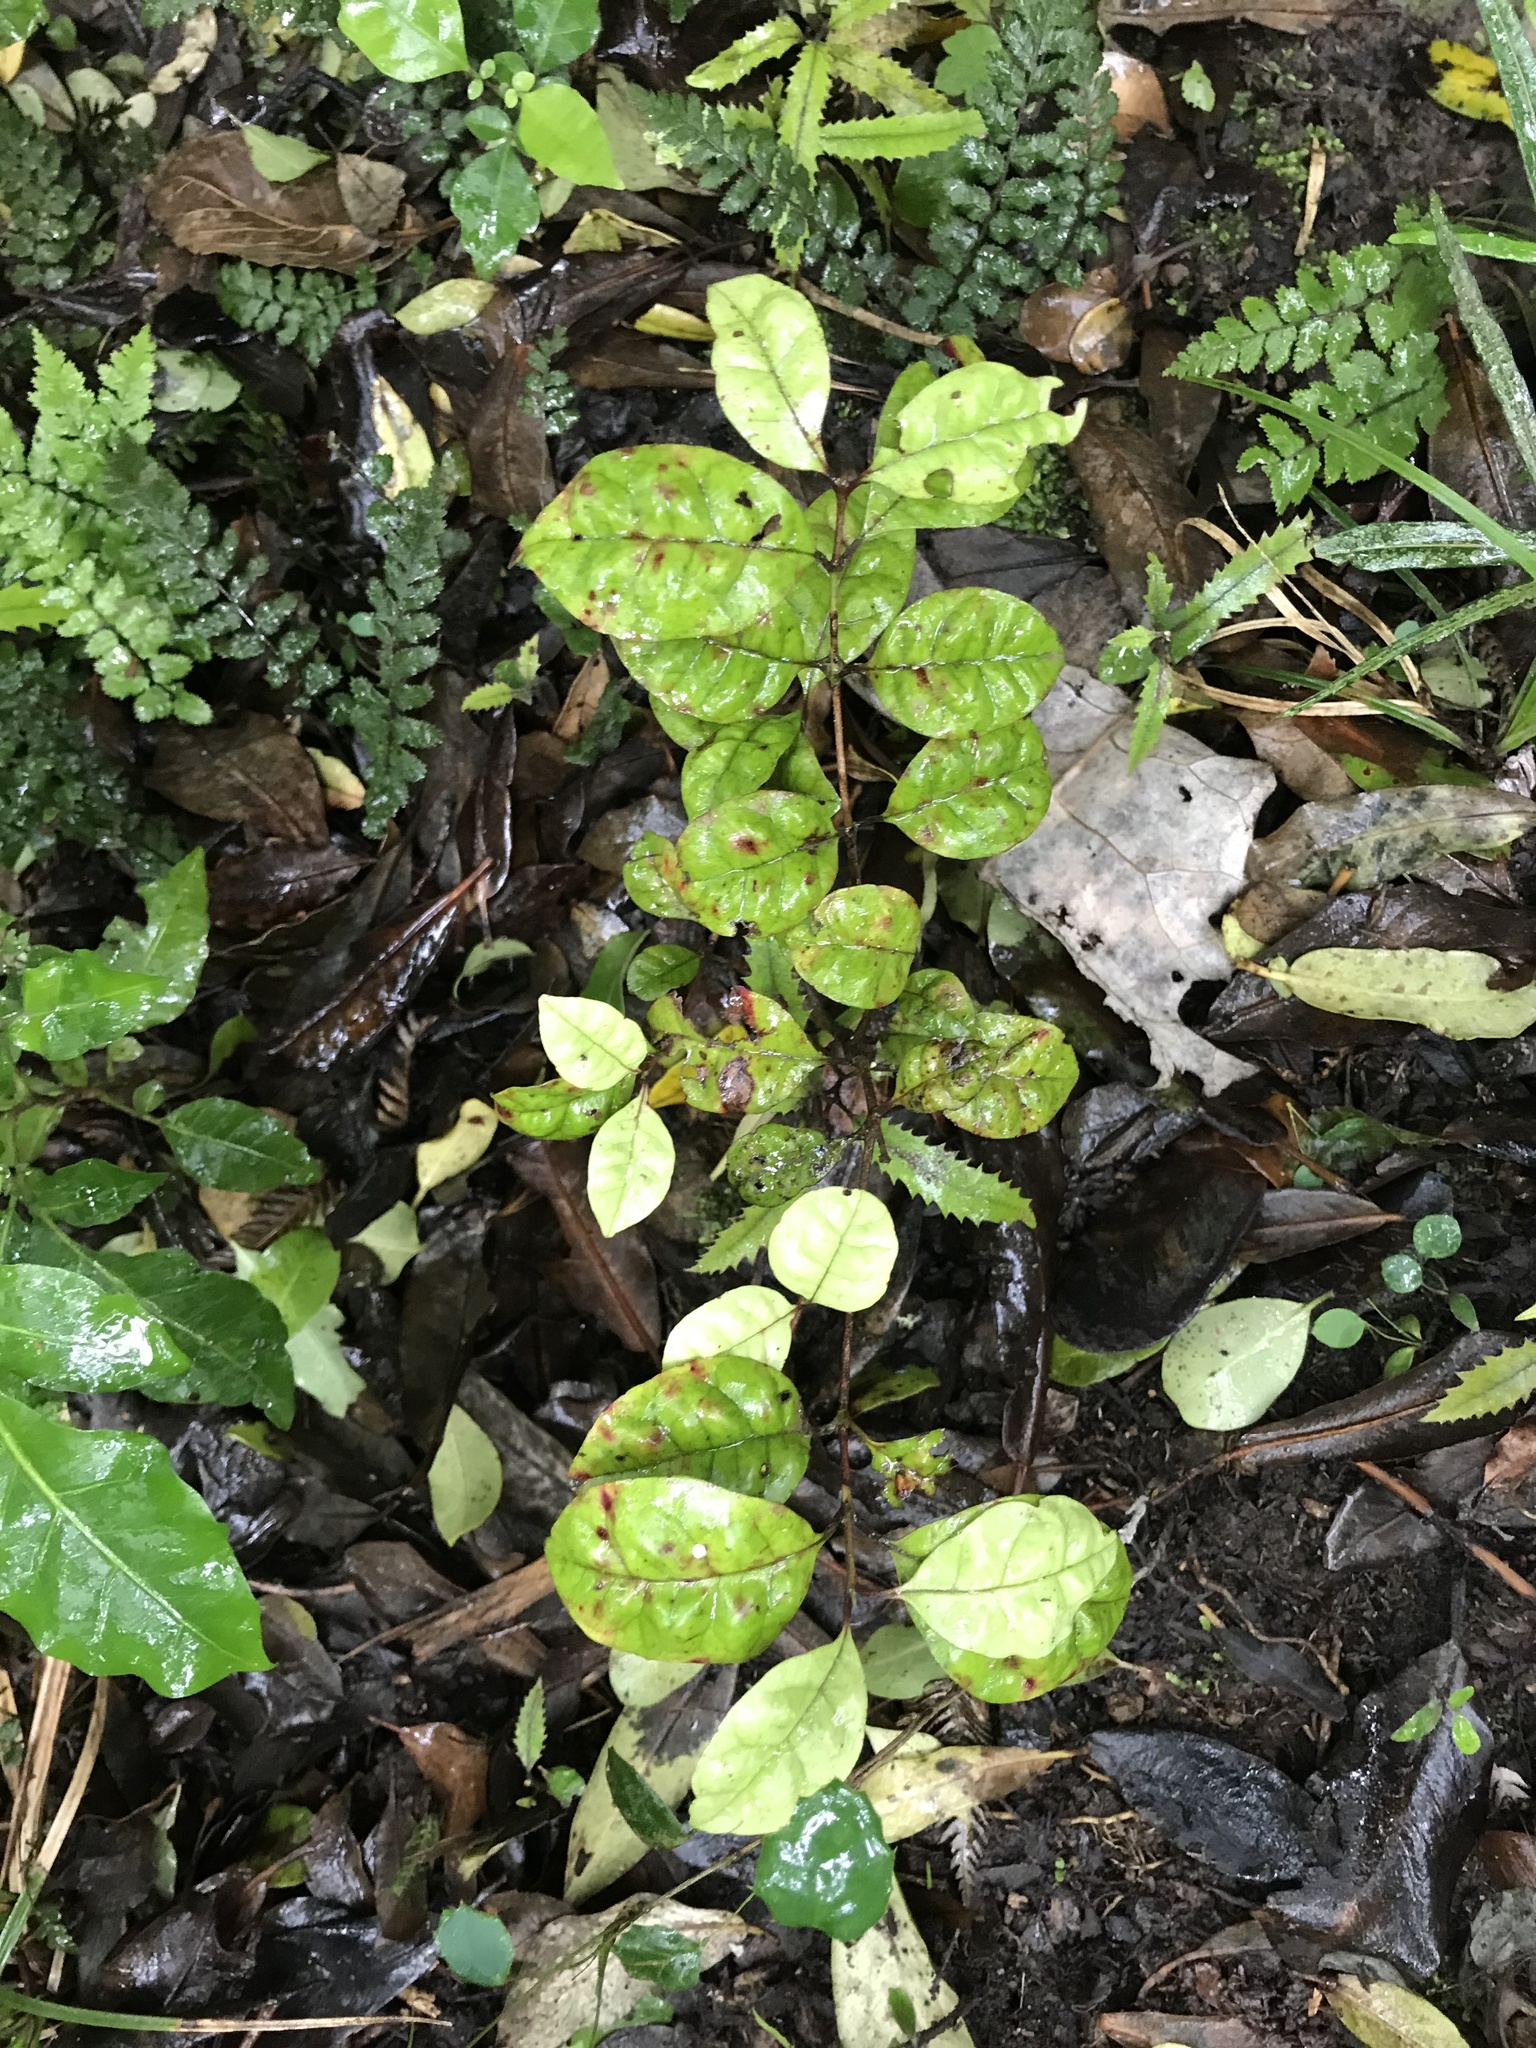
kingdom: Plantae
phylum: Tracheophyta
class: Magnoliopsida
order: Myrtales
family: Myrtaceae
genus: Lophomyrtus
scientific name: Lophomyrtus bullata
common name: Rama rama
